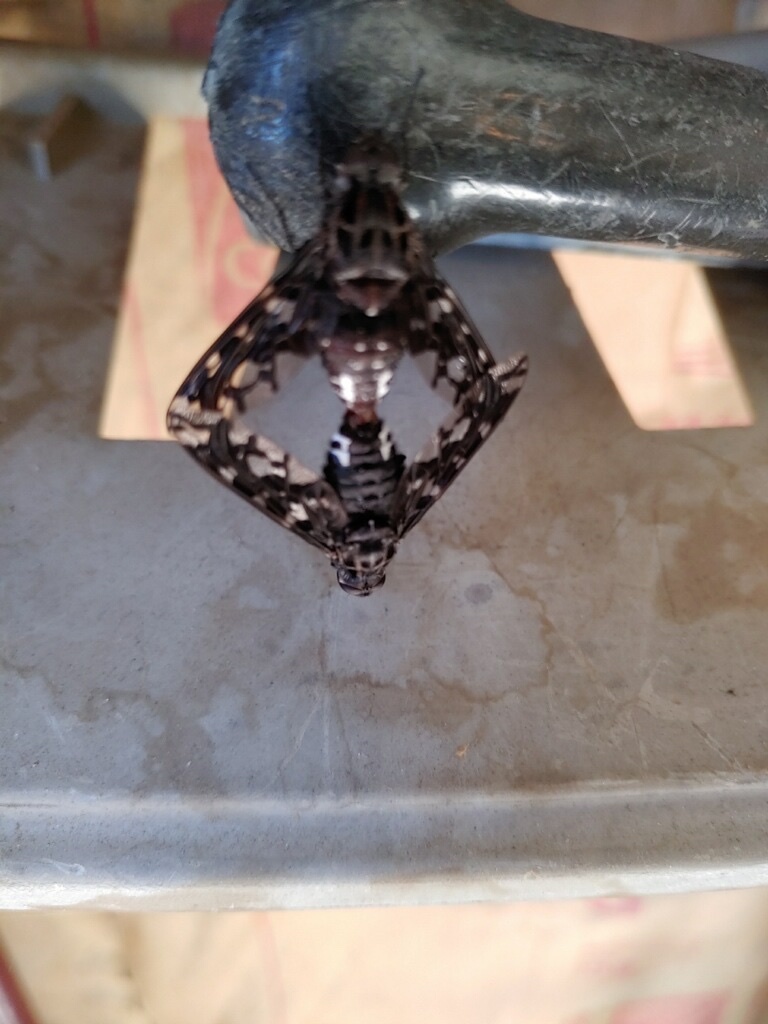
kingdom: Animalia
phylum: Arthropoda
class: Insecta
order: Diptera
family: Bombyliidae
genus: Xenox
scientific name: Xenox tigrinus
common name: Tiger bee fly
